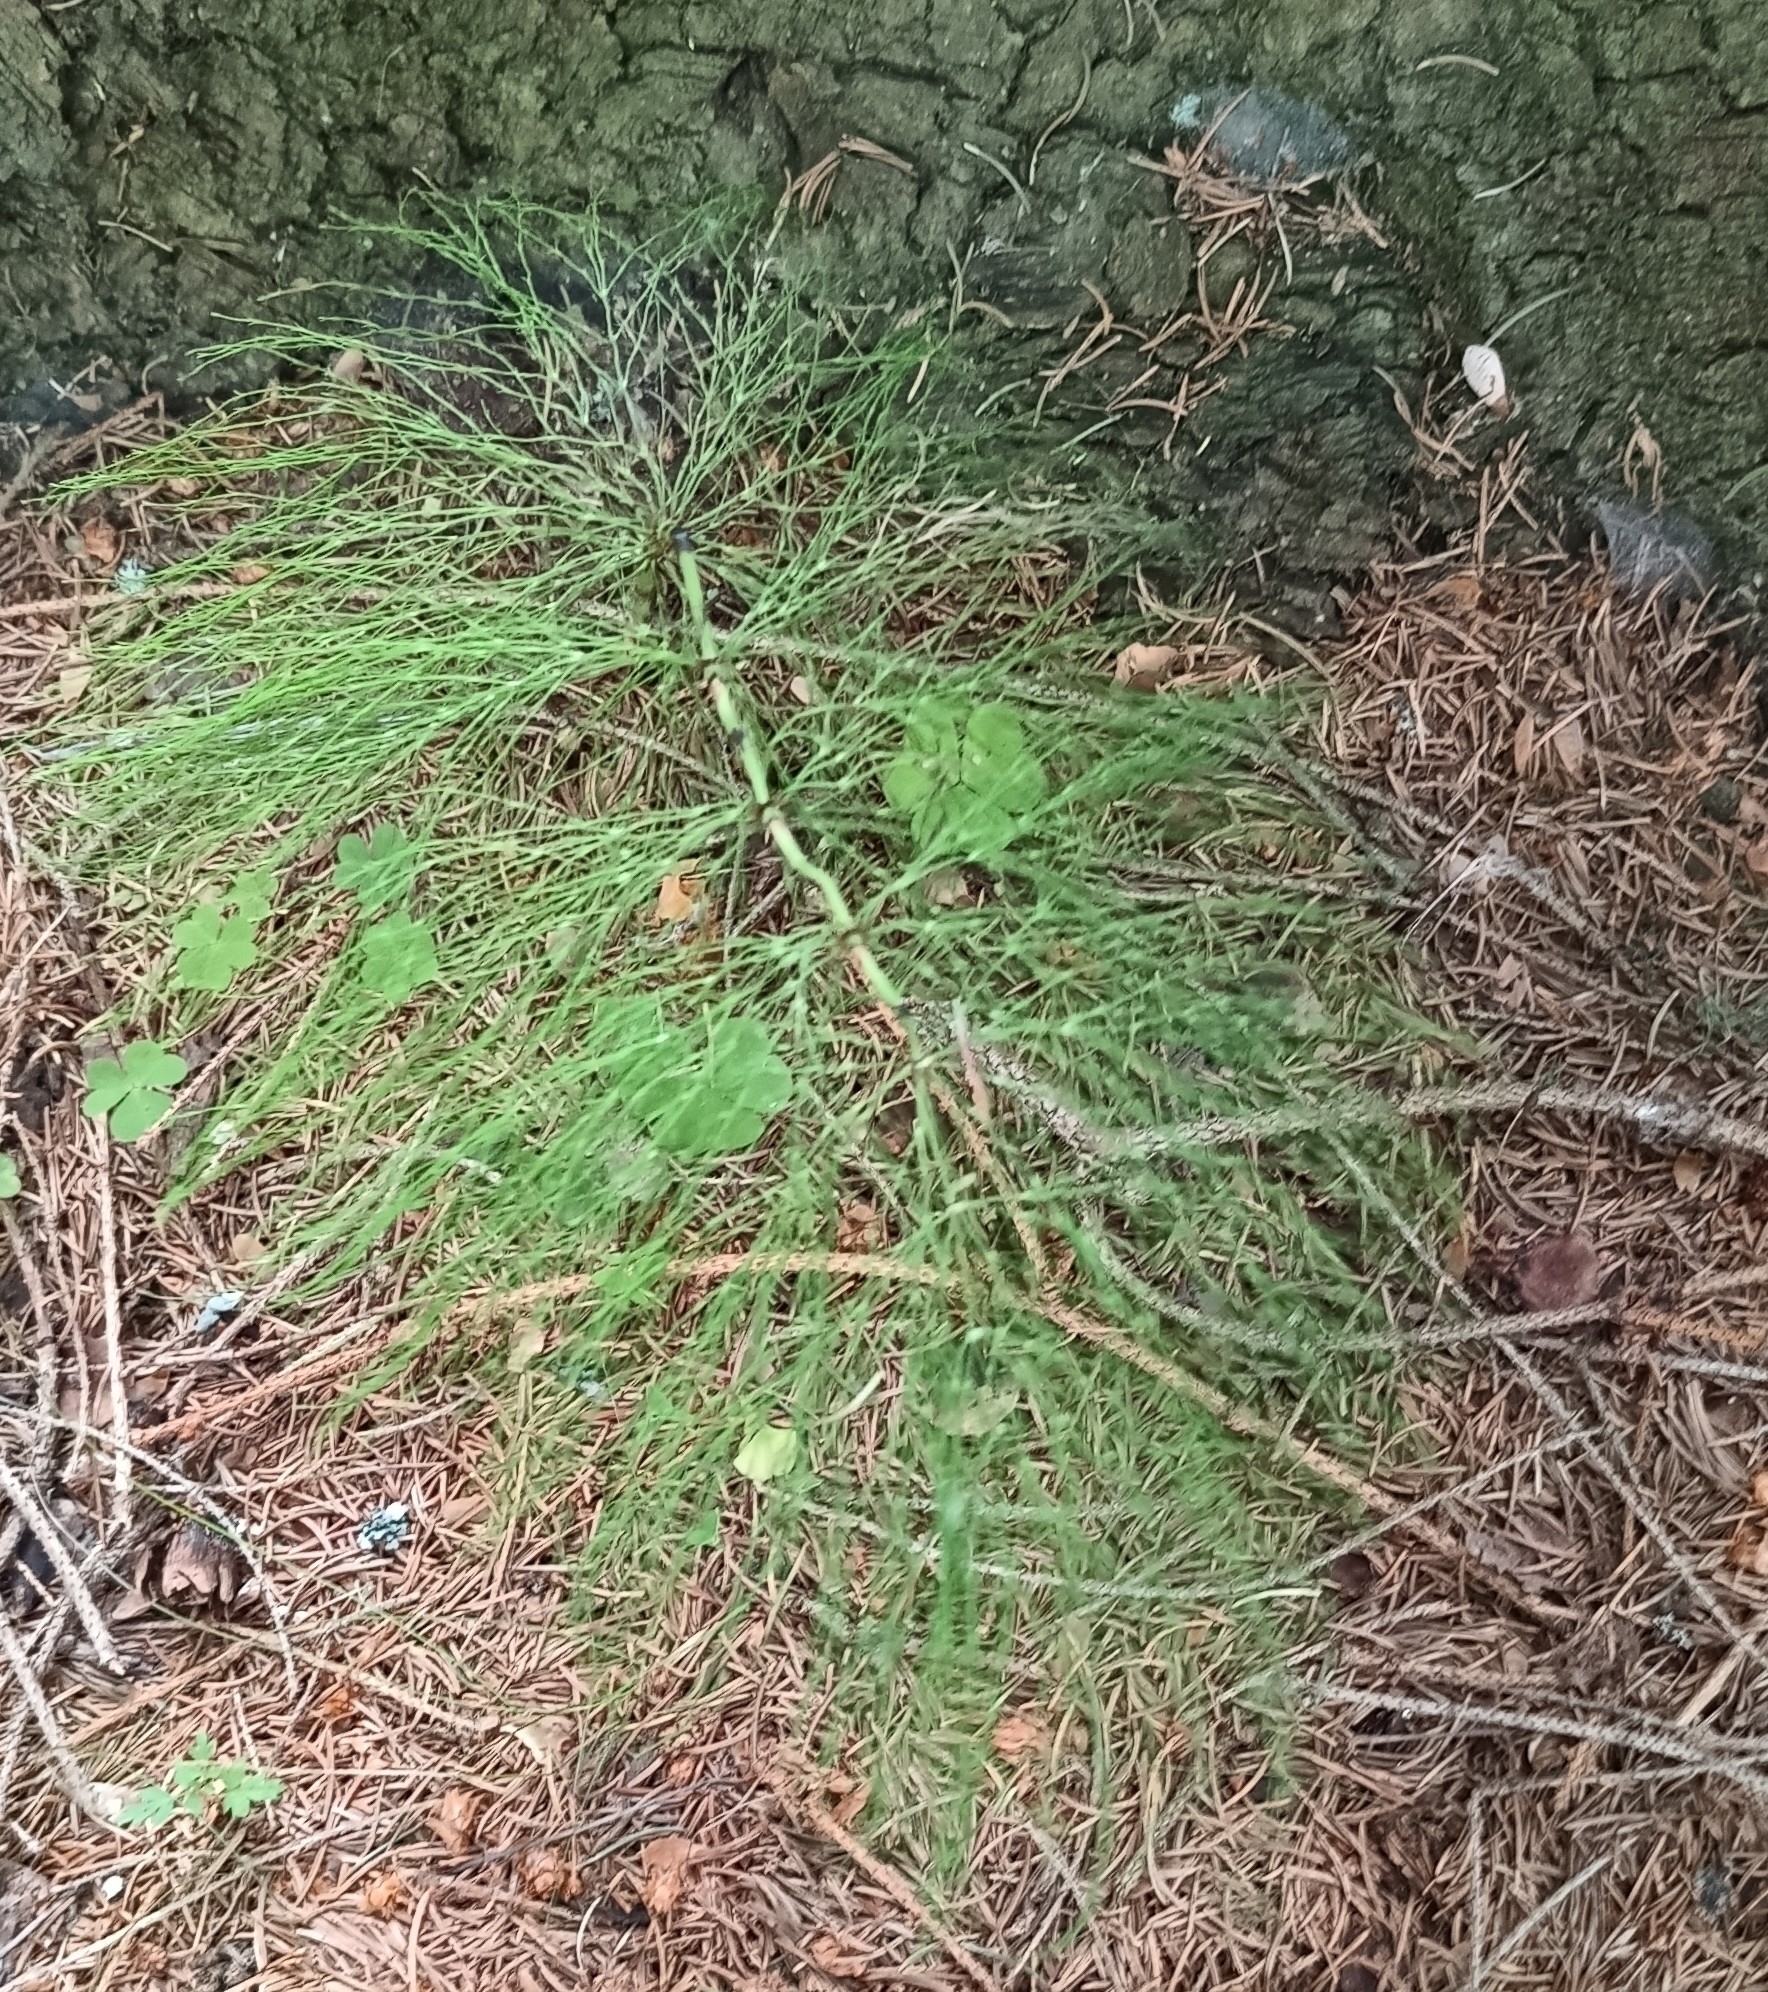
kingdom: Plantae
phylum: Tracheophyta
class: Polypodiopsida
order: Equisetales
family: Equisetaceae
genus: Equisetum
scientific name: Equisetum sylvaticum
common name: Wood horsetail
